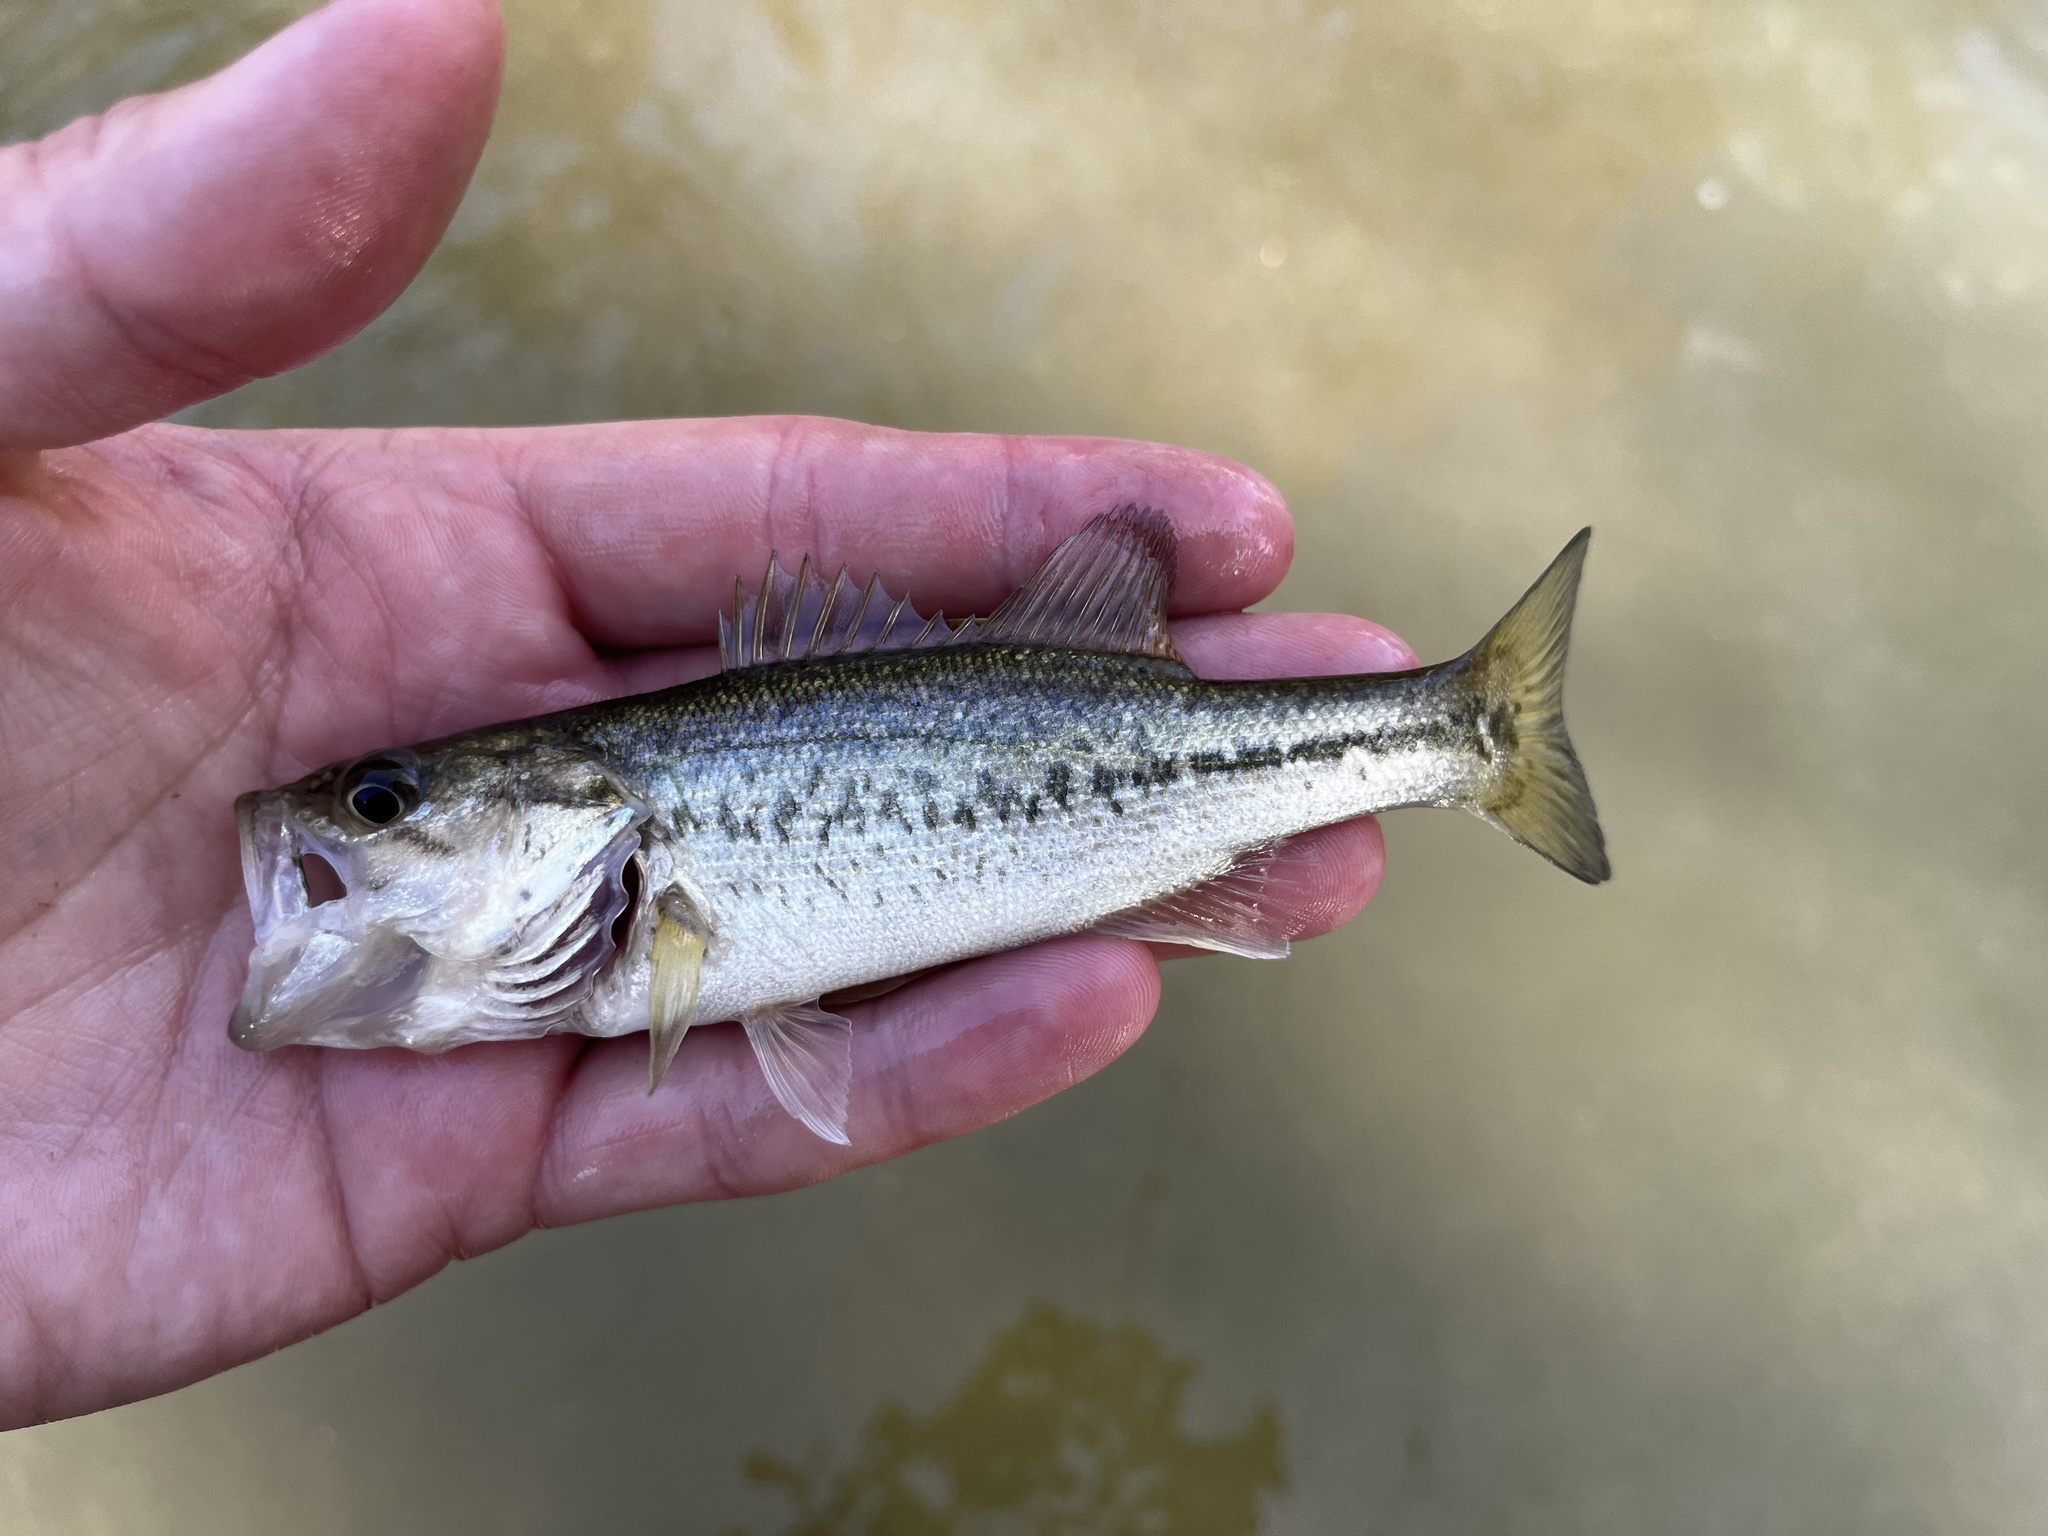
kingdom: Animalia
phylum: Chordata
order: Perciformes
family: Centrarchidae
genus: Micropterus
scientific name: Micropterus
